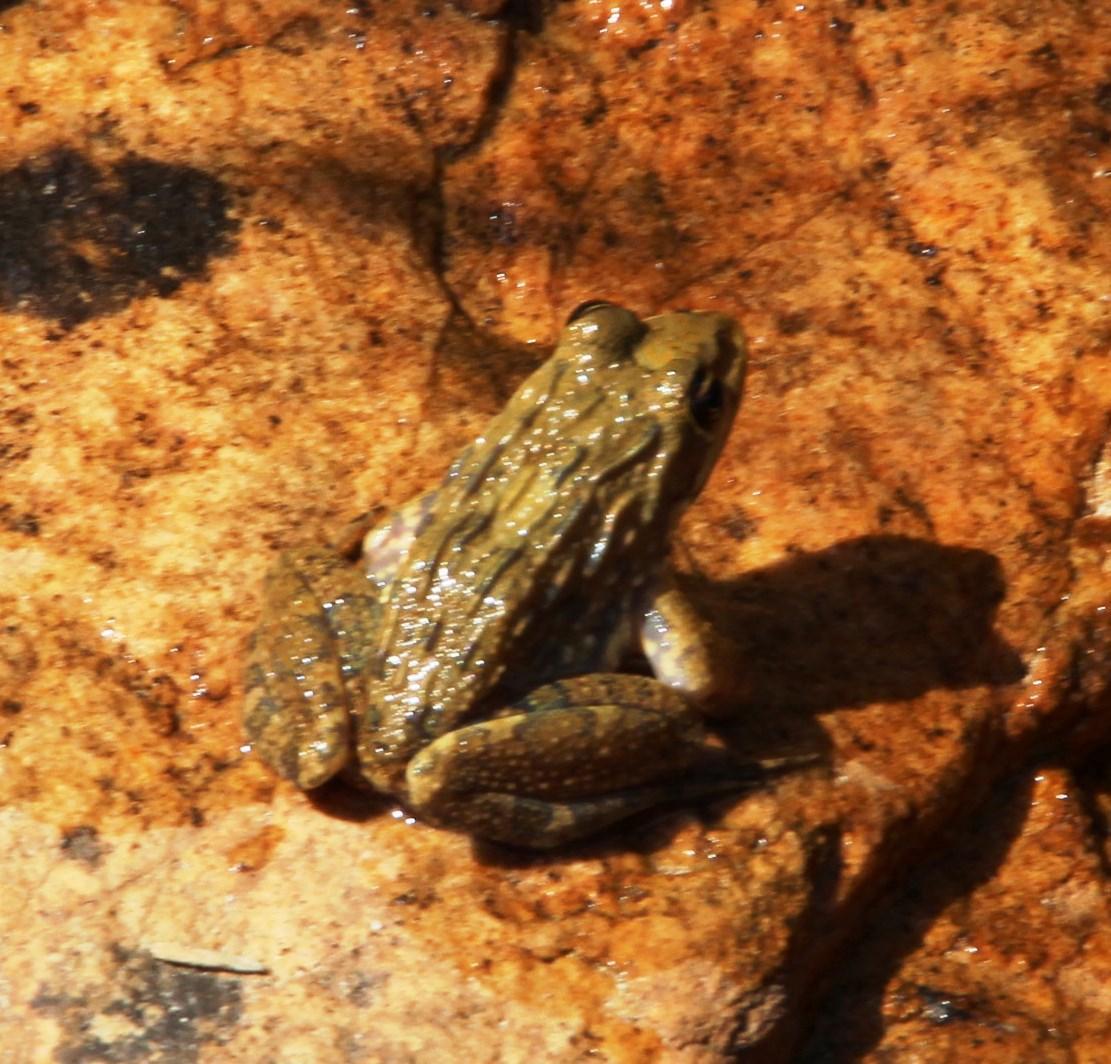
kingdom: Animalia
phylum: Chordata
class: Amphibia
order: Anura
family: Pyxicephalidae
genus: Amietia
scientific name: Amietia fuscigula
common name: Cape rana
